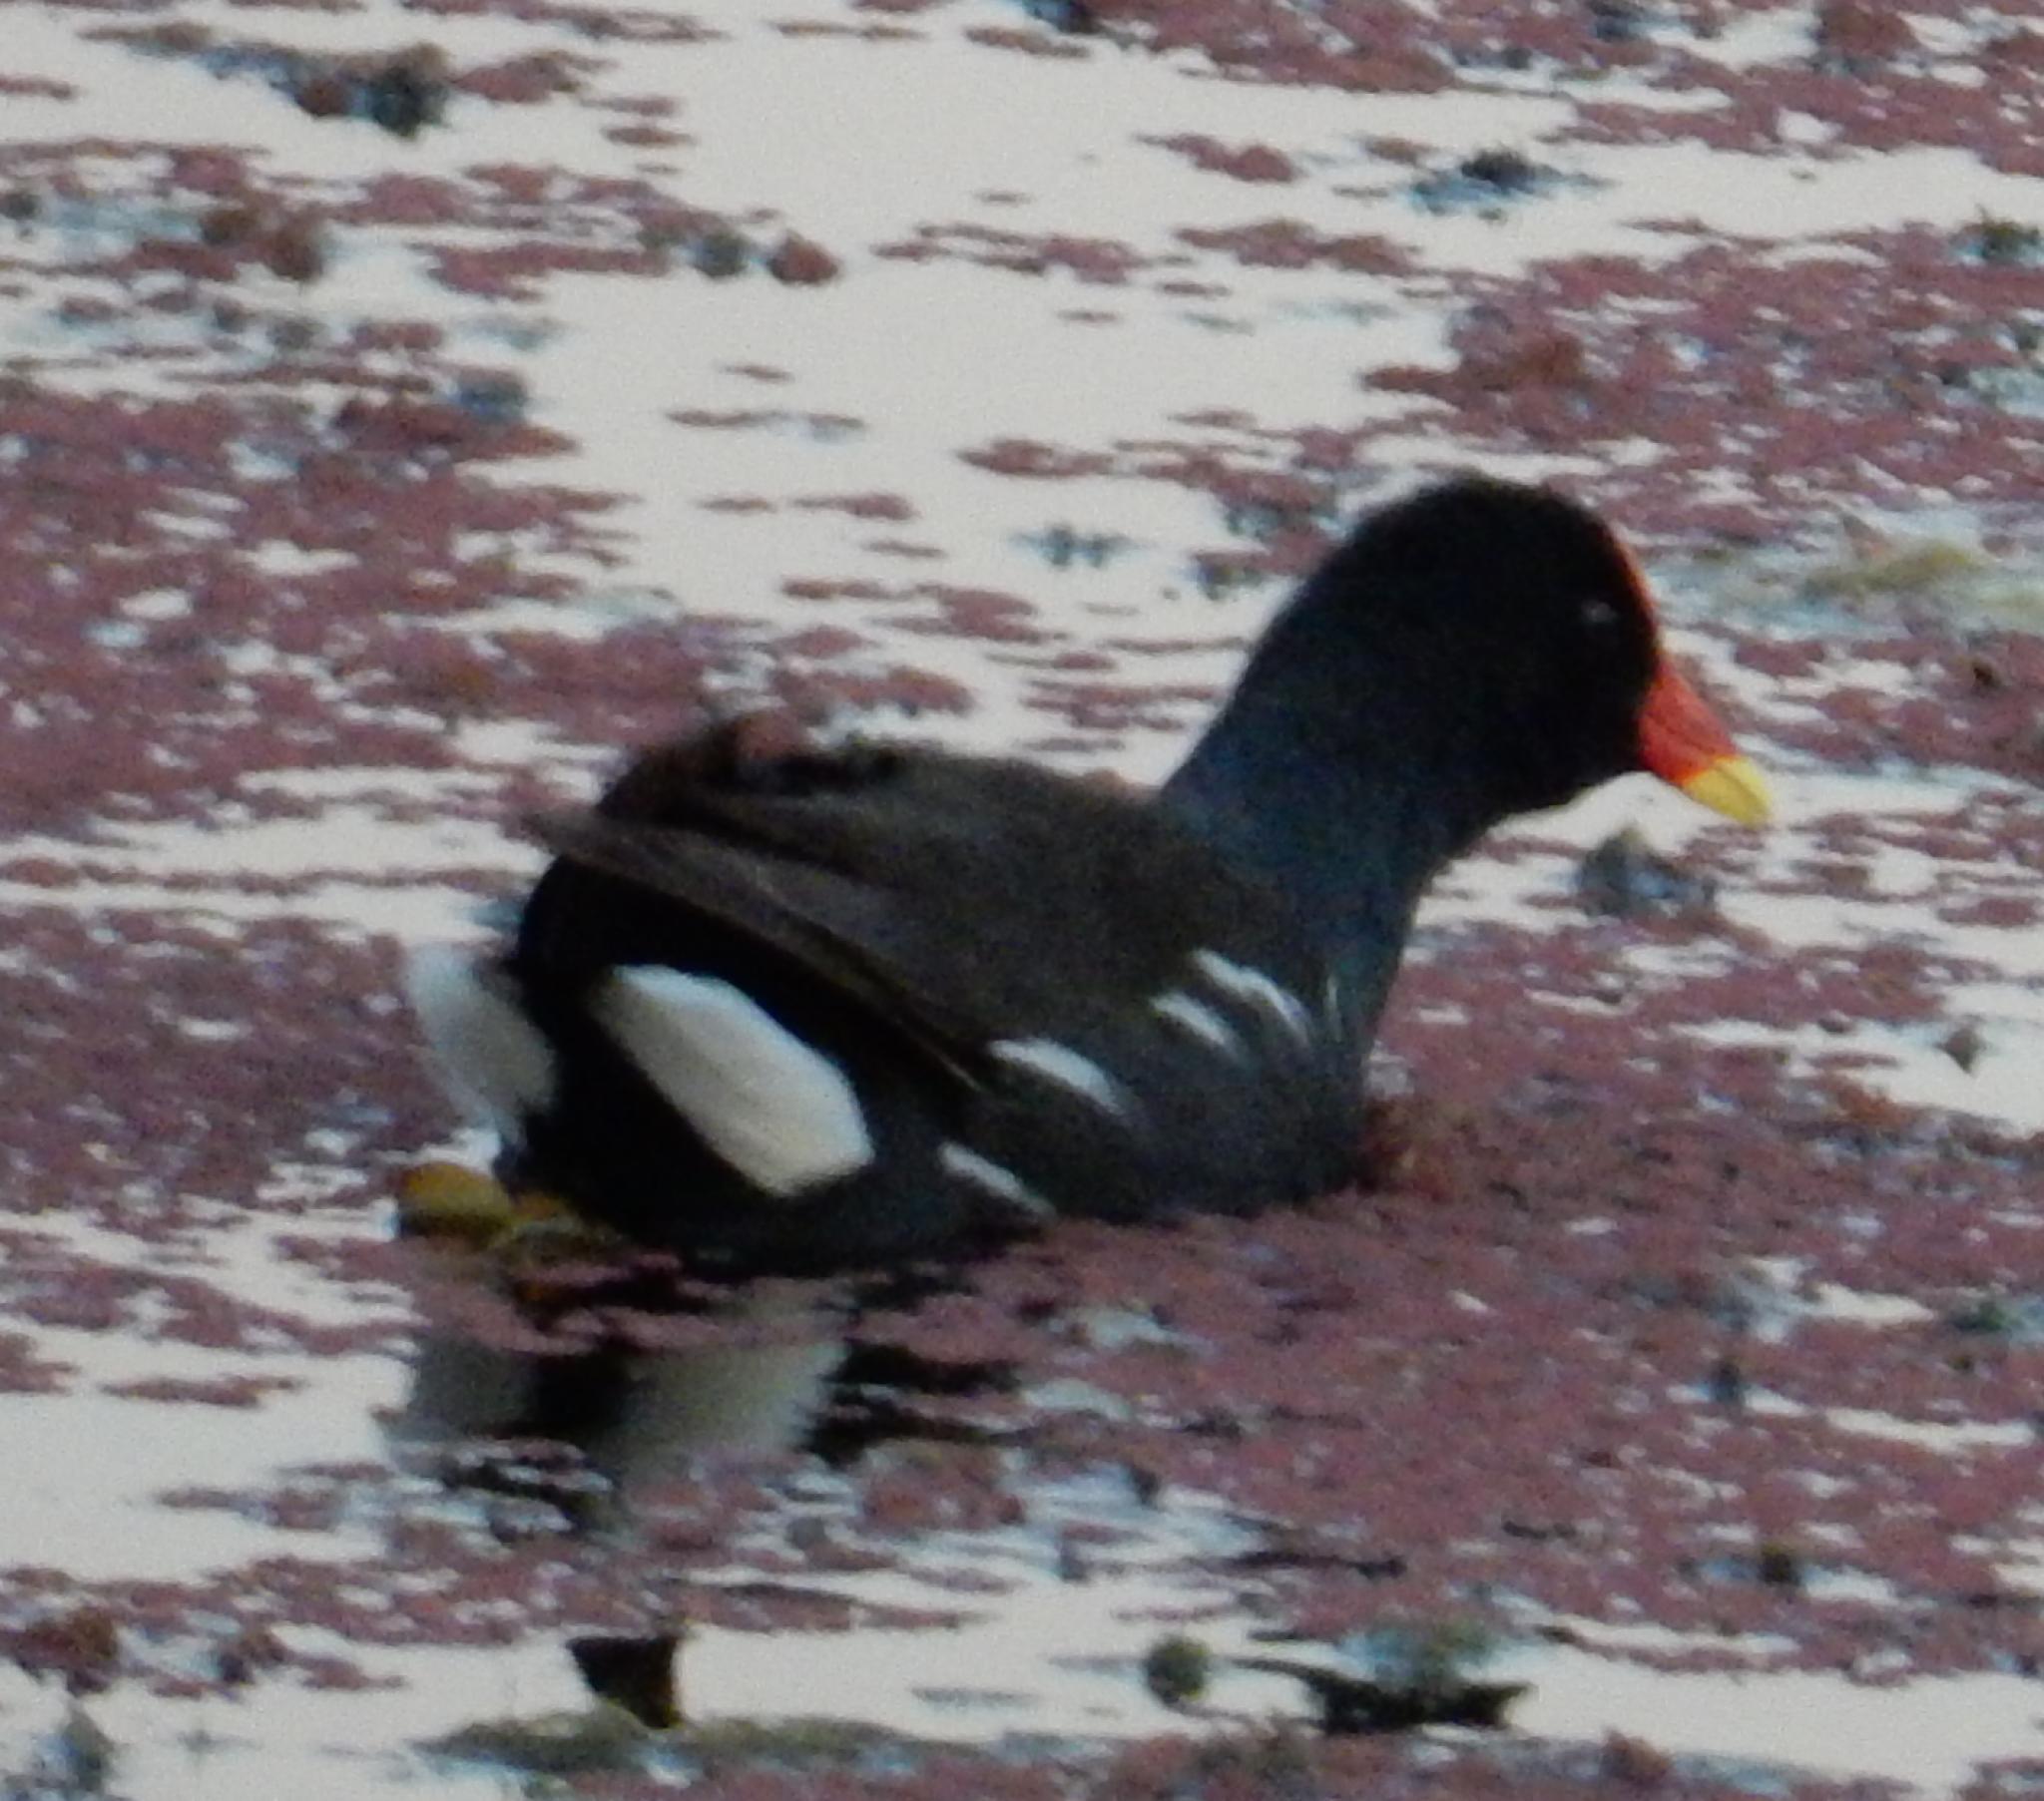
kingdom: Animalia
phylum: Chordata
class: Aves
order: Gruiformes
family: Rallidae
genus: Gallinula
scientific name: Gallinula chloropus
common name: Common moorhen
